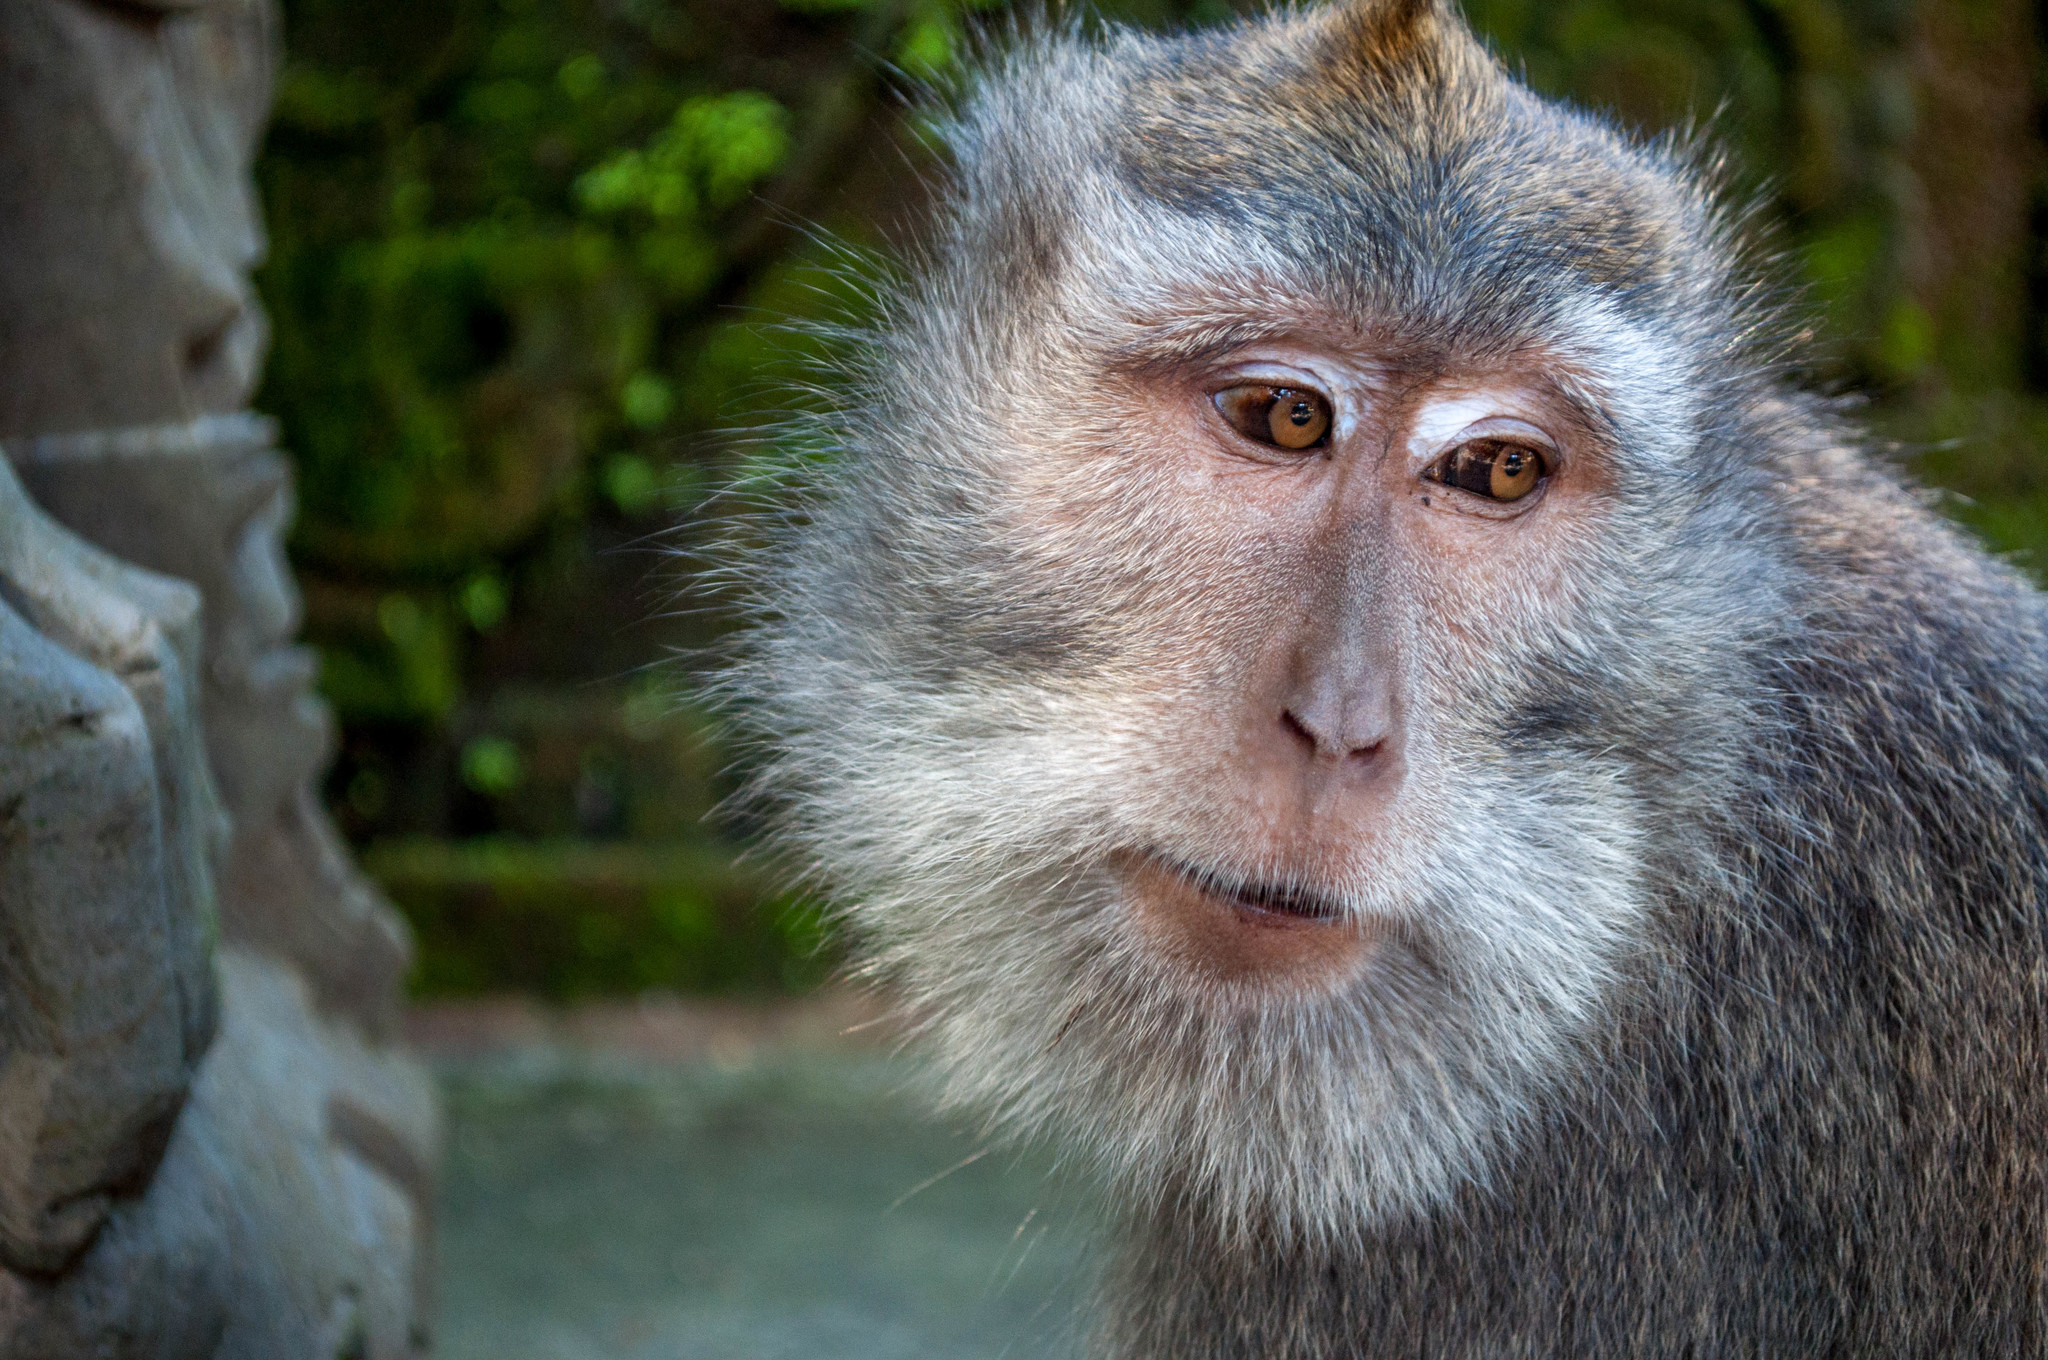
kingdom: Animalia
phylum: Chordata
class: Mammalia
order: Primates
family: Cercopithecidae
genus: Macaca
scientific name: Macaca fascicularis
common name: Crab-eating macaque
